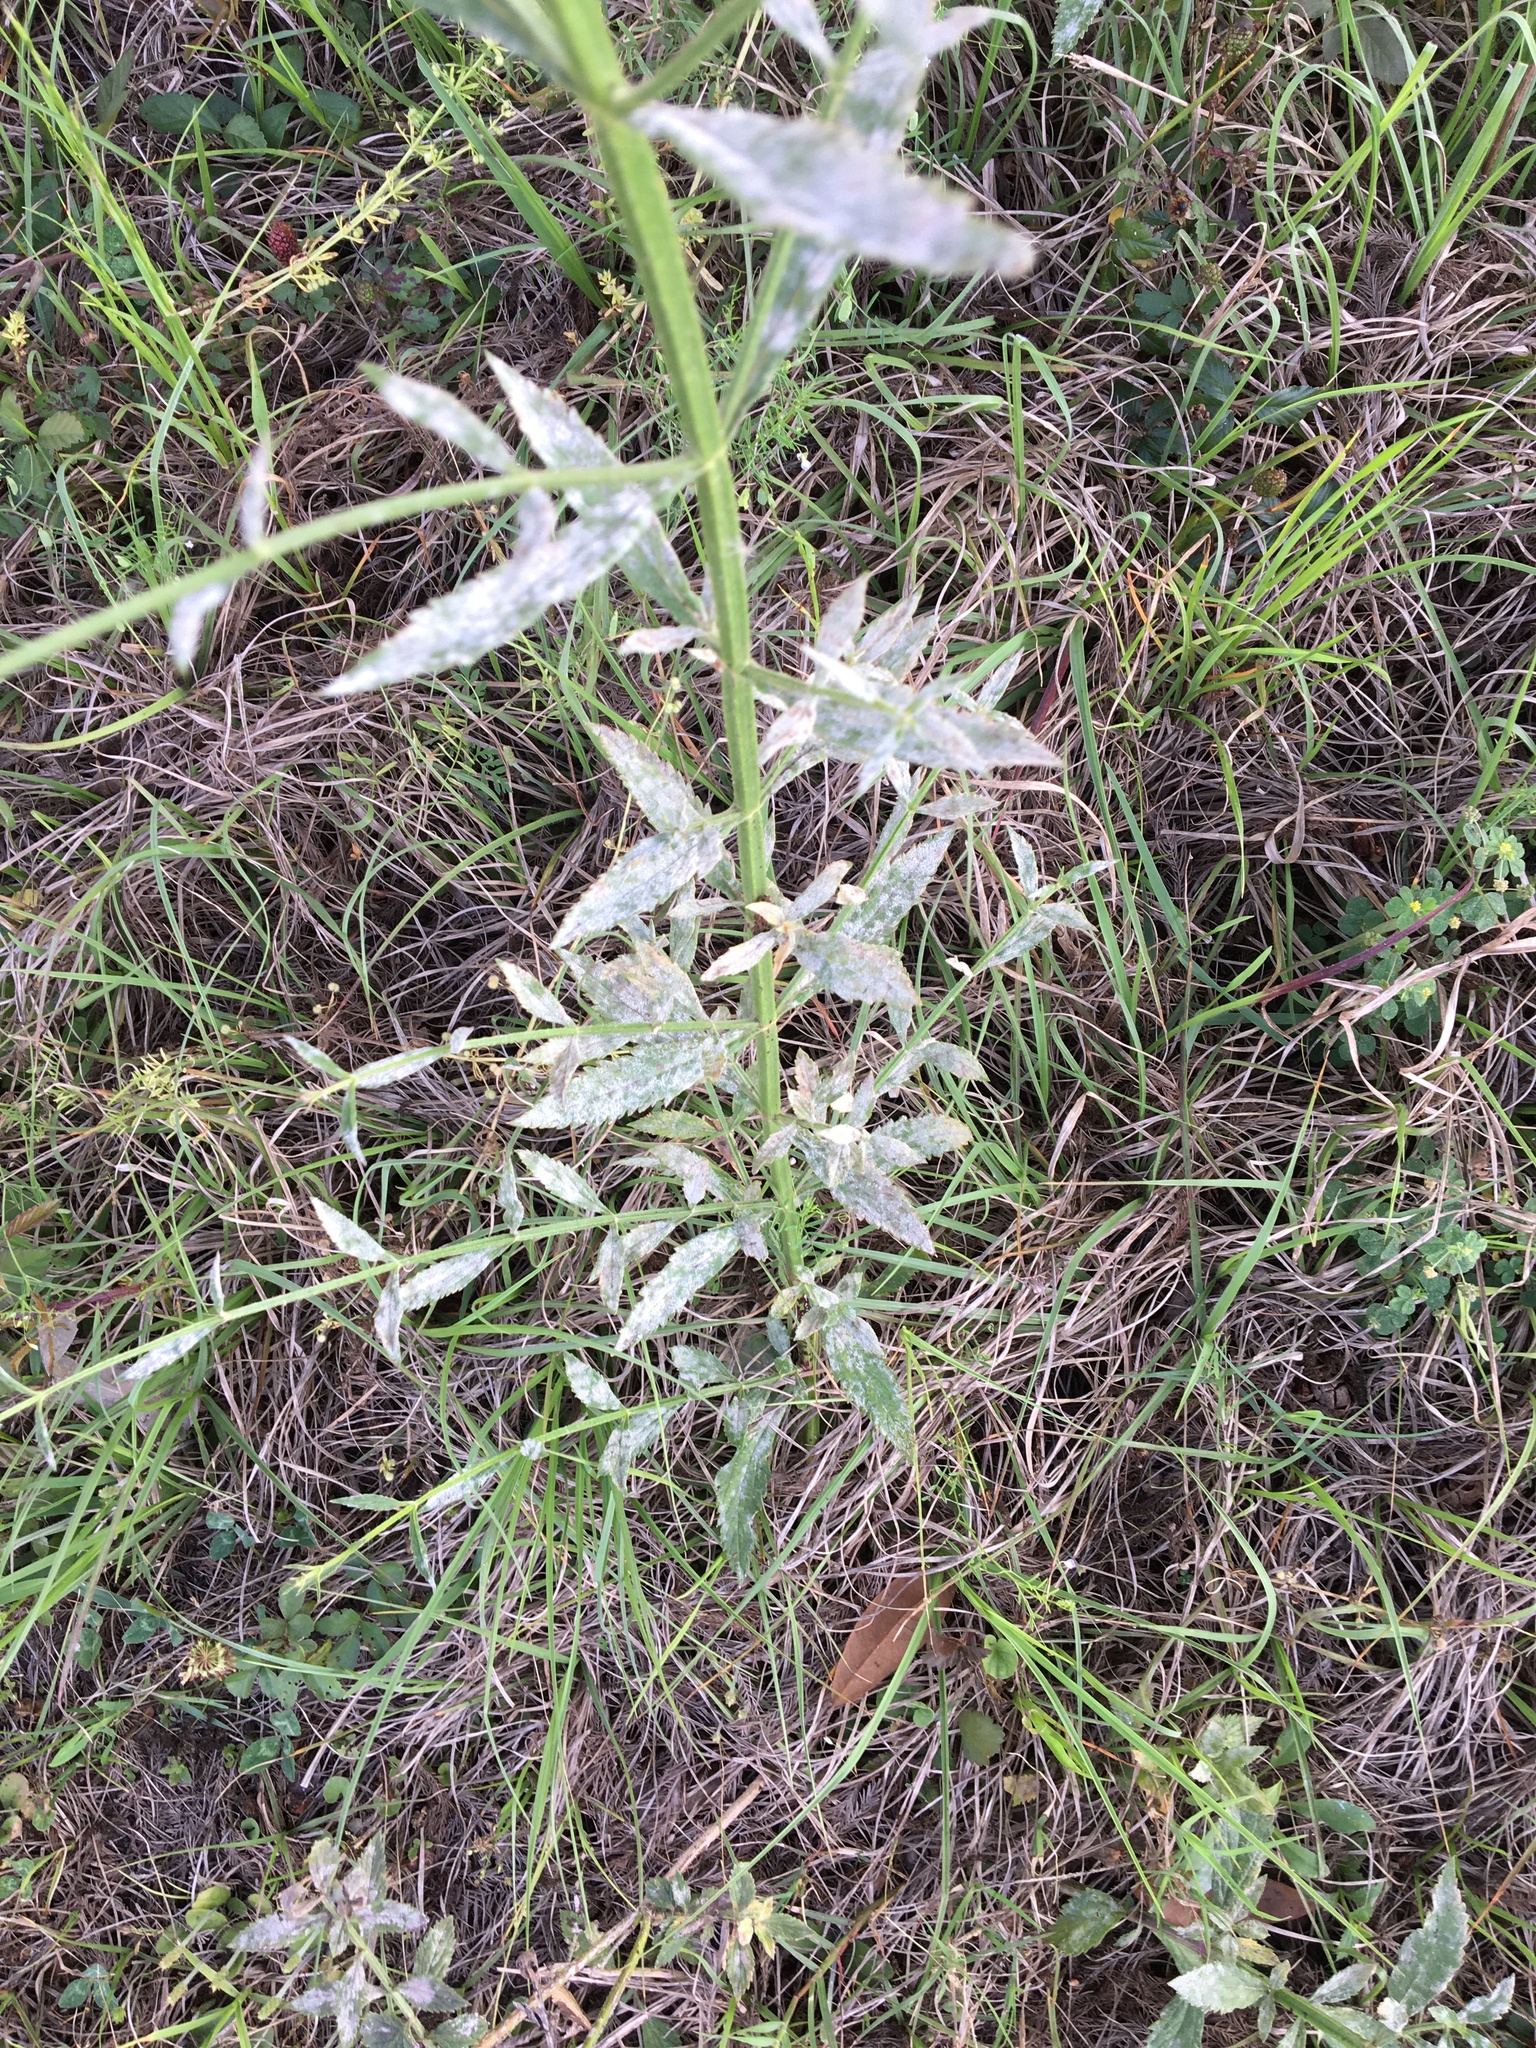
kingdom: Plantae
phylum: Tracheophyta
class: Magnoliopsida
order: Lamiales
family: Verbenaceae
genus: Verbena
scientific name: Verbena brasiliensis
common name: Brazilian vervain
